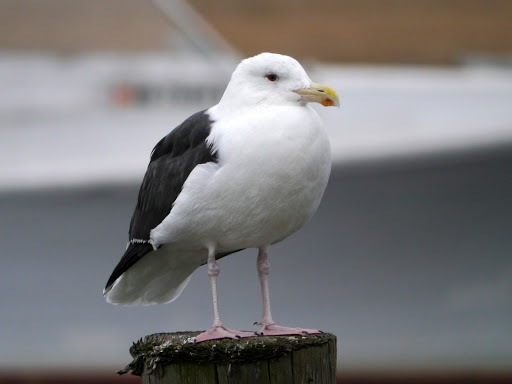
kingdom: Animalia
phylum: Chordata
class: Aves
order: Charadriiformes
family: Laridae
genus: Larus
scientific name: Larus marinus
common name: Great black-backed gull
